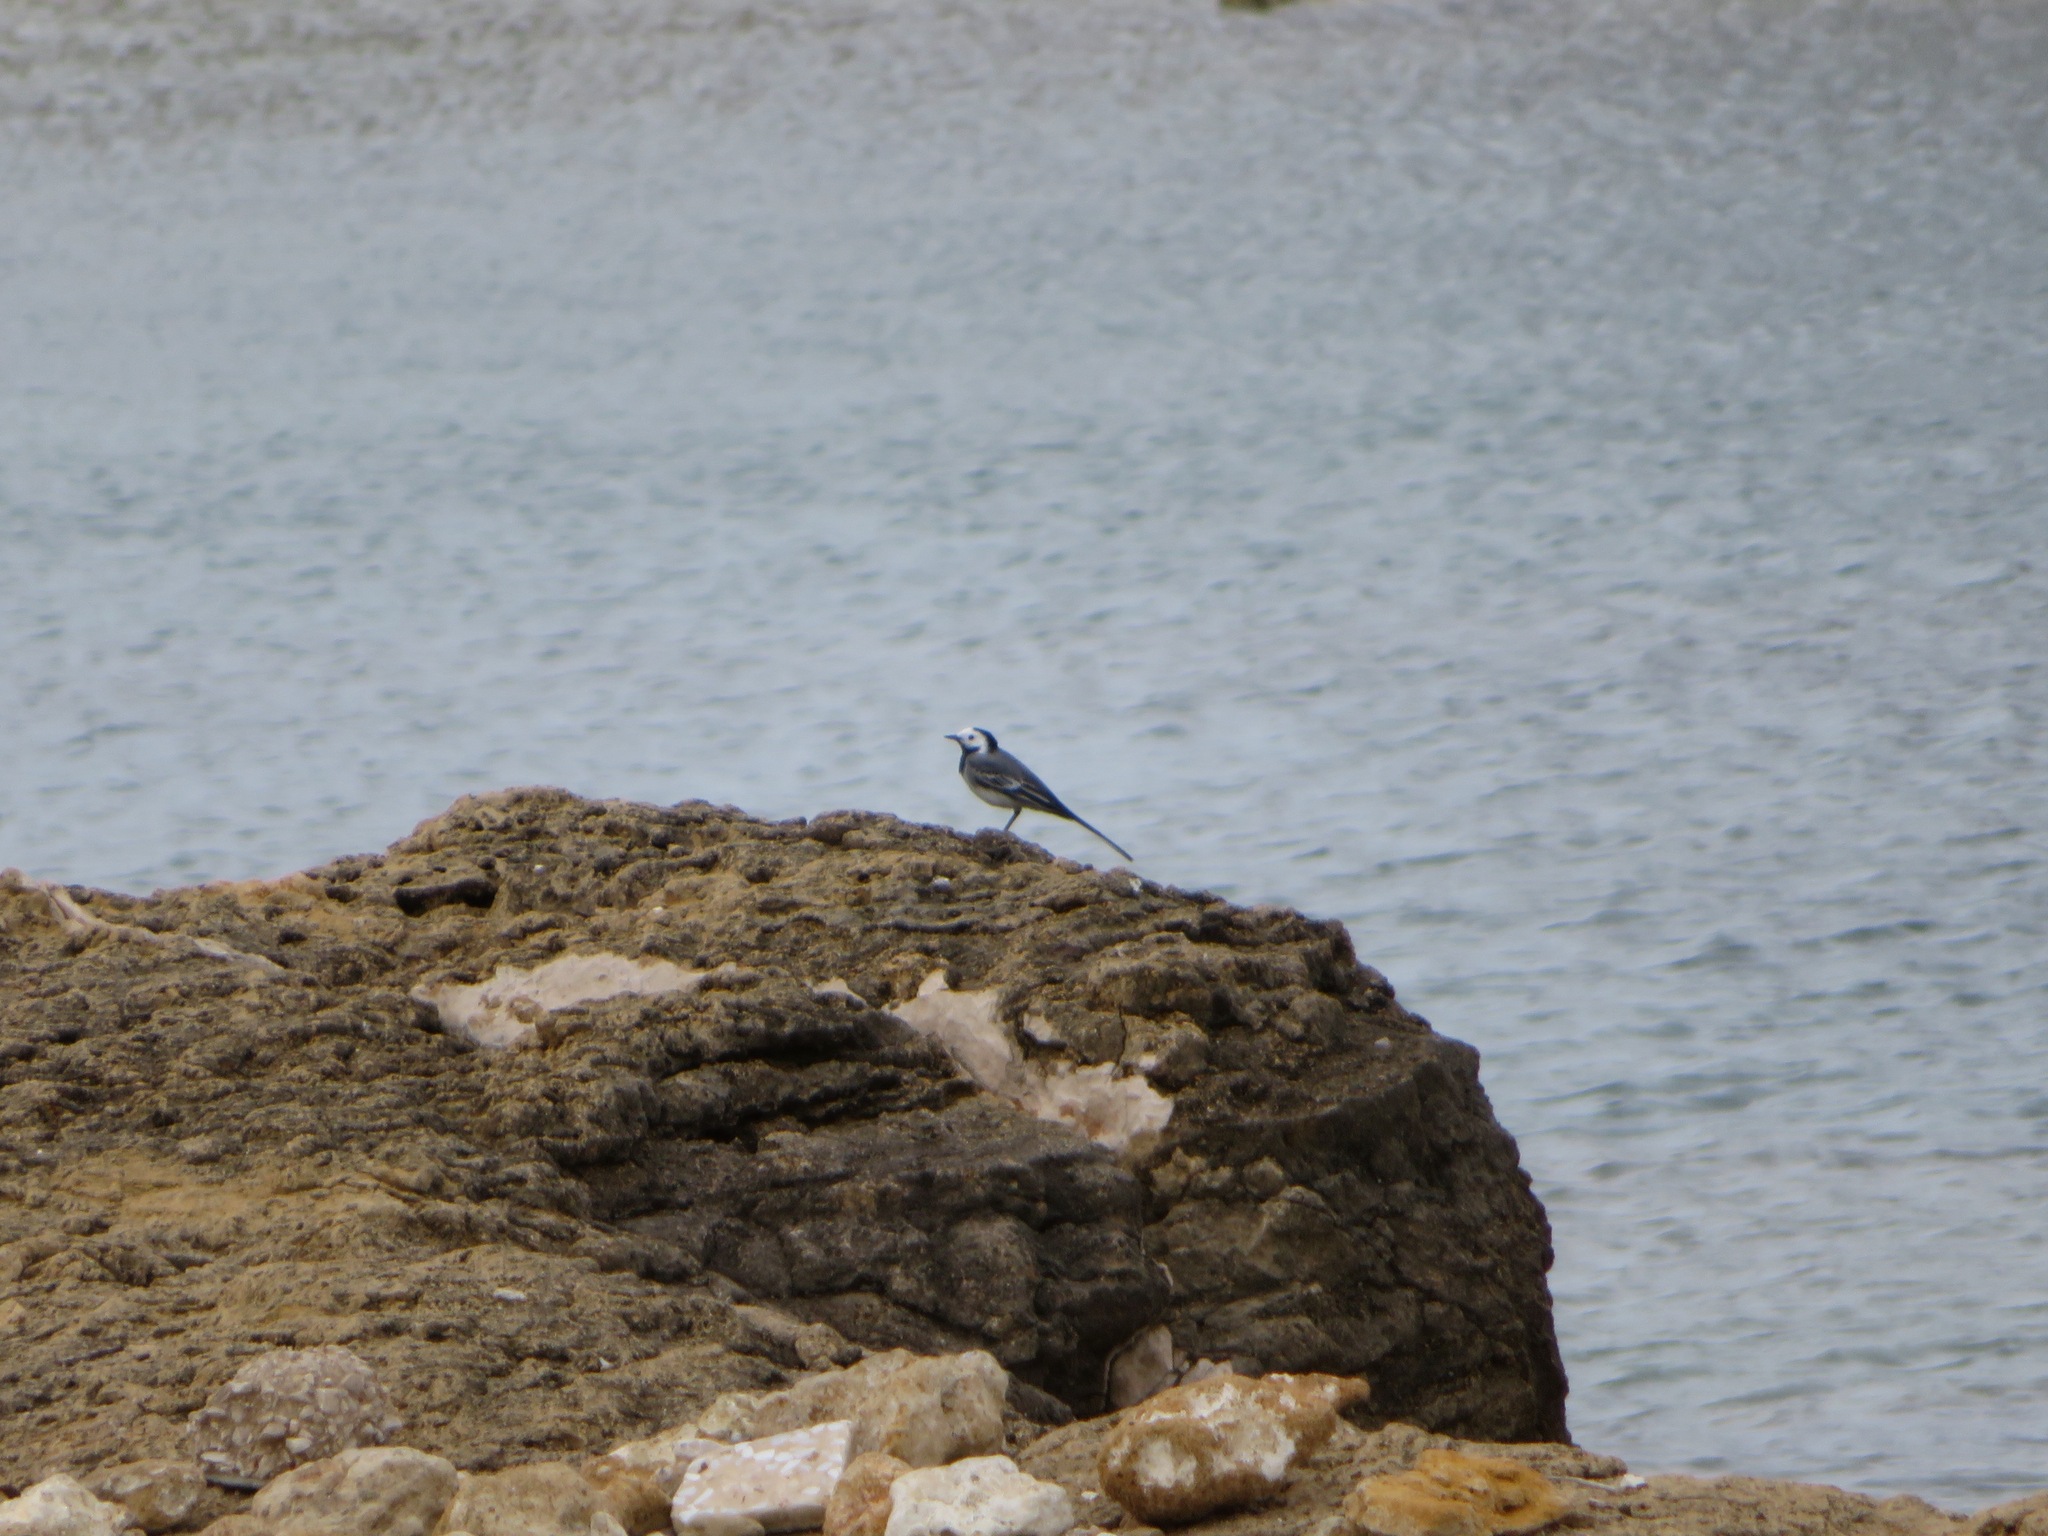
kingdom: Animalia
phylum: Chordata
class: Aves
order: Passeriformes
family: Motacillidae
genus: Motacilla
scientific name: Motacilla alba
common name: White wagtail
